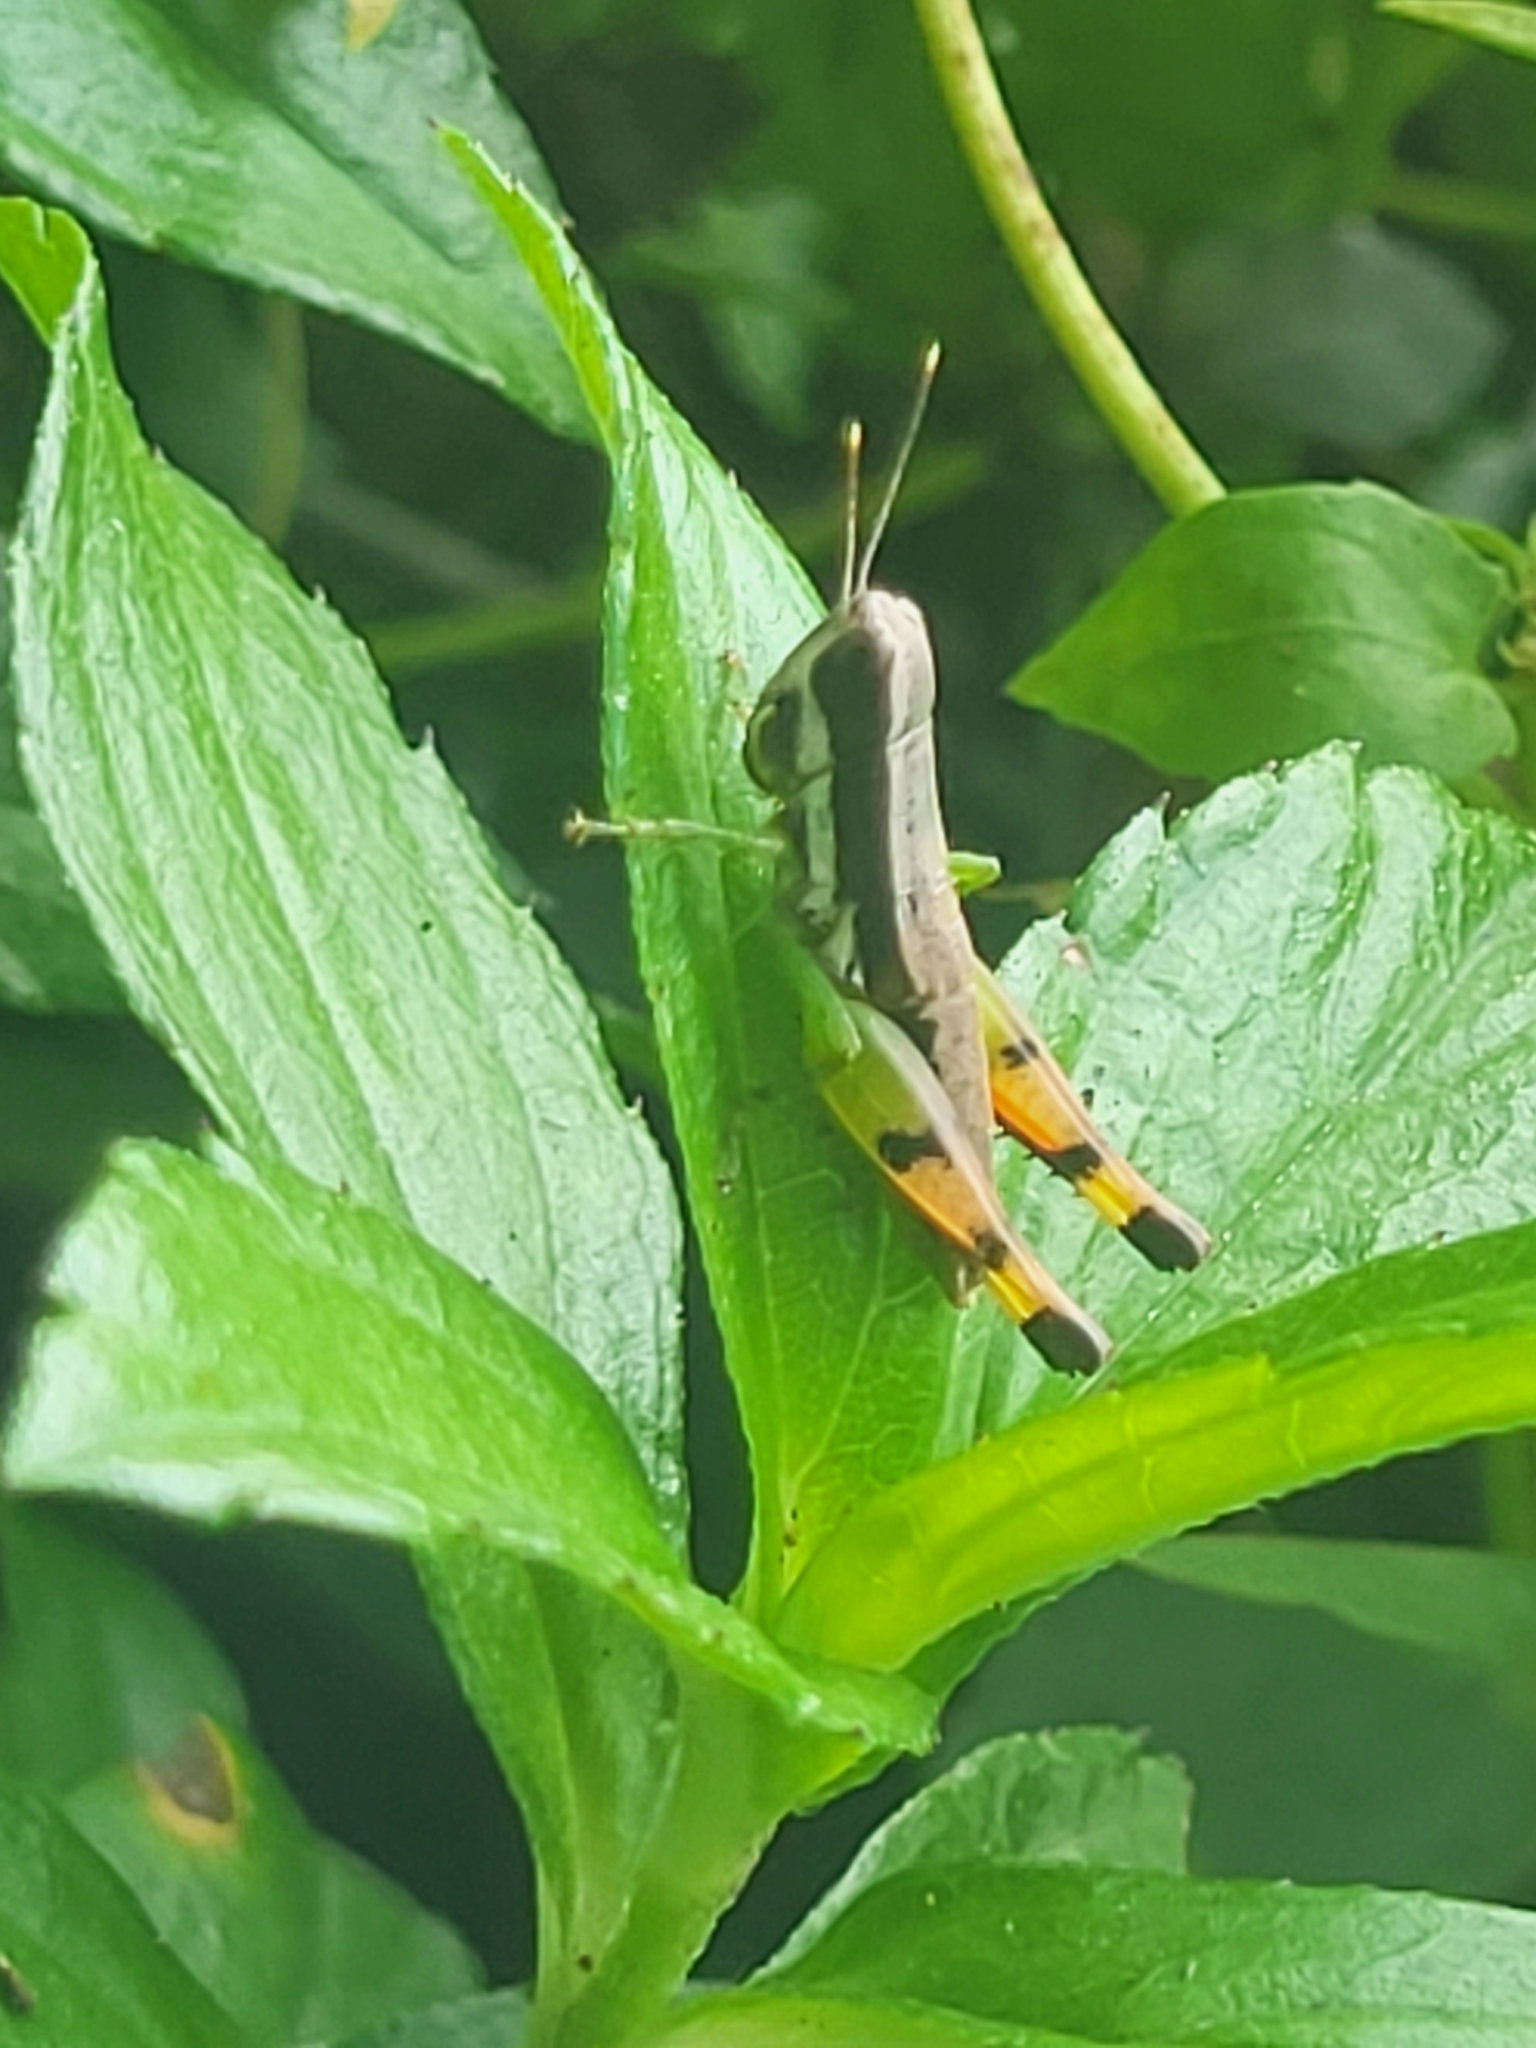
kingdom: Animalia
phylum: Arthropoda
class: Insecta
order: Orthoptera
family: Acrididae
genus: Chitaura
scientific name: Chitaura indica
